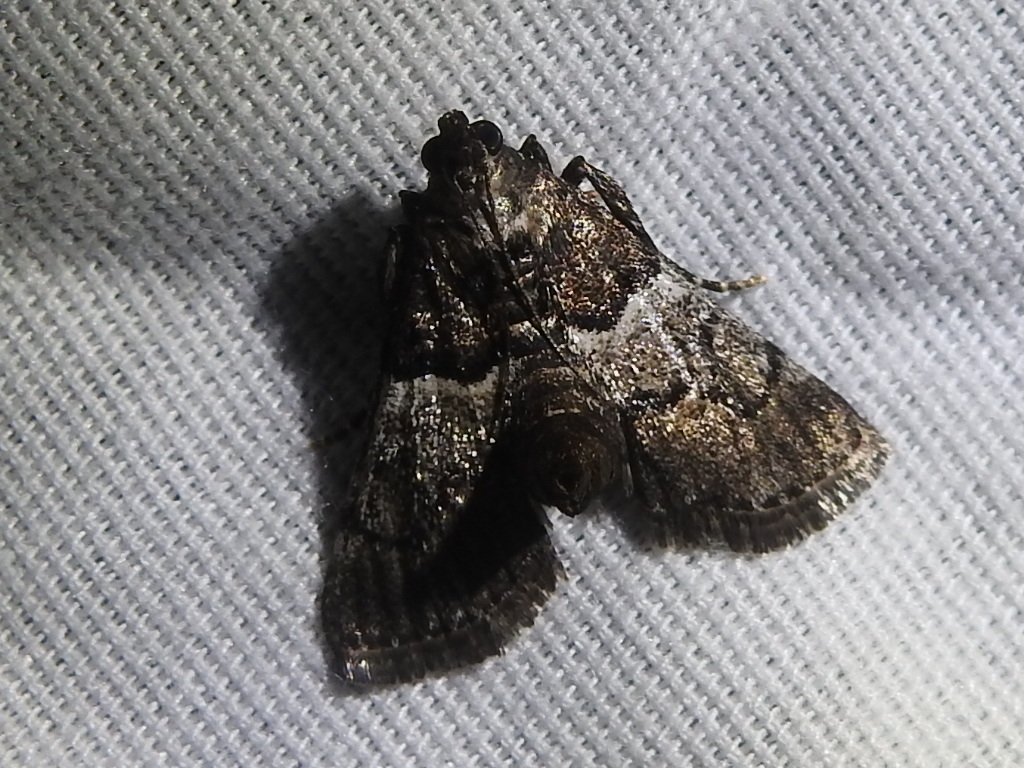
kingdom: Animalia
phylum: Arthropoda
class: Insecta
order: Lepidoptera
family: Pyralidae
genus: Macalla
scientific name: Macalla zelleri
